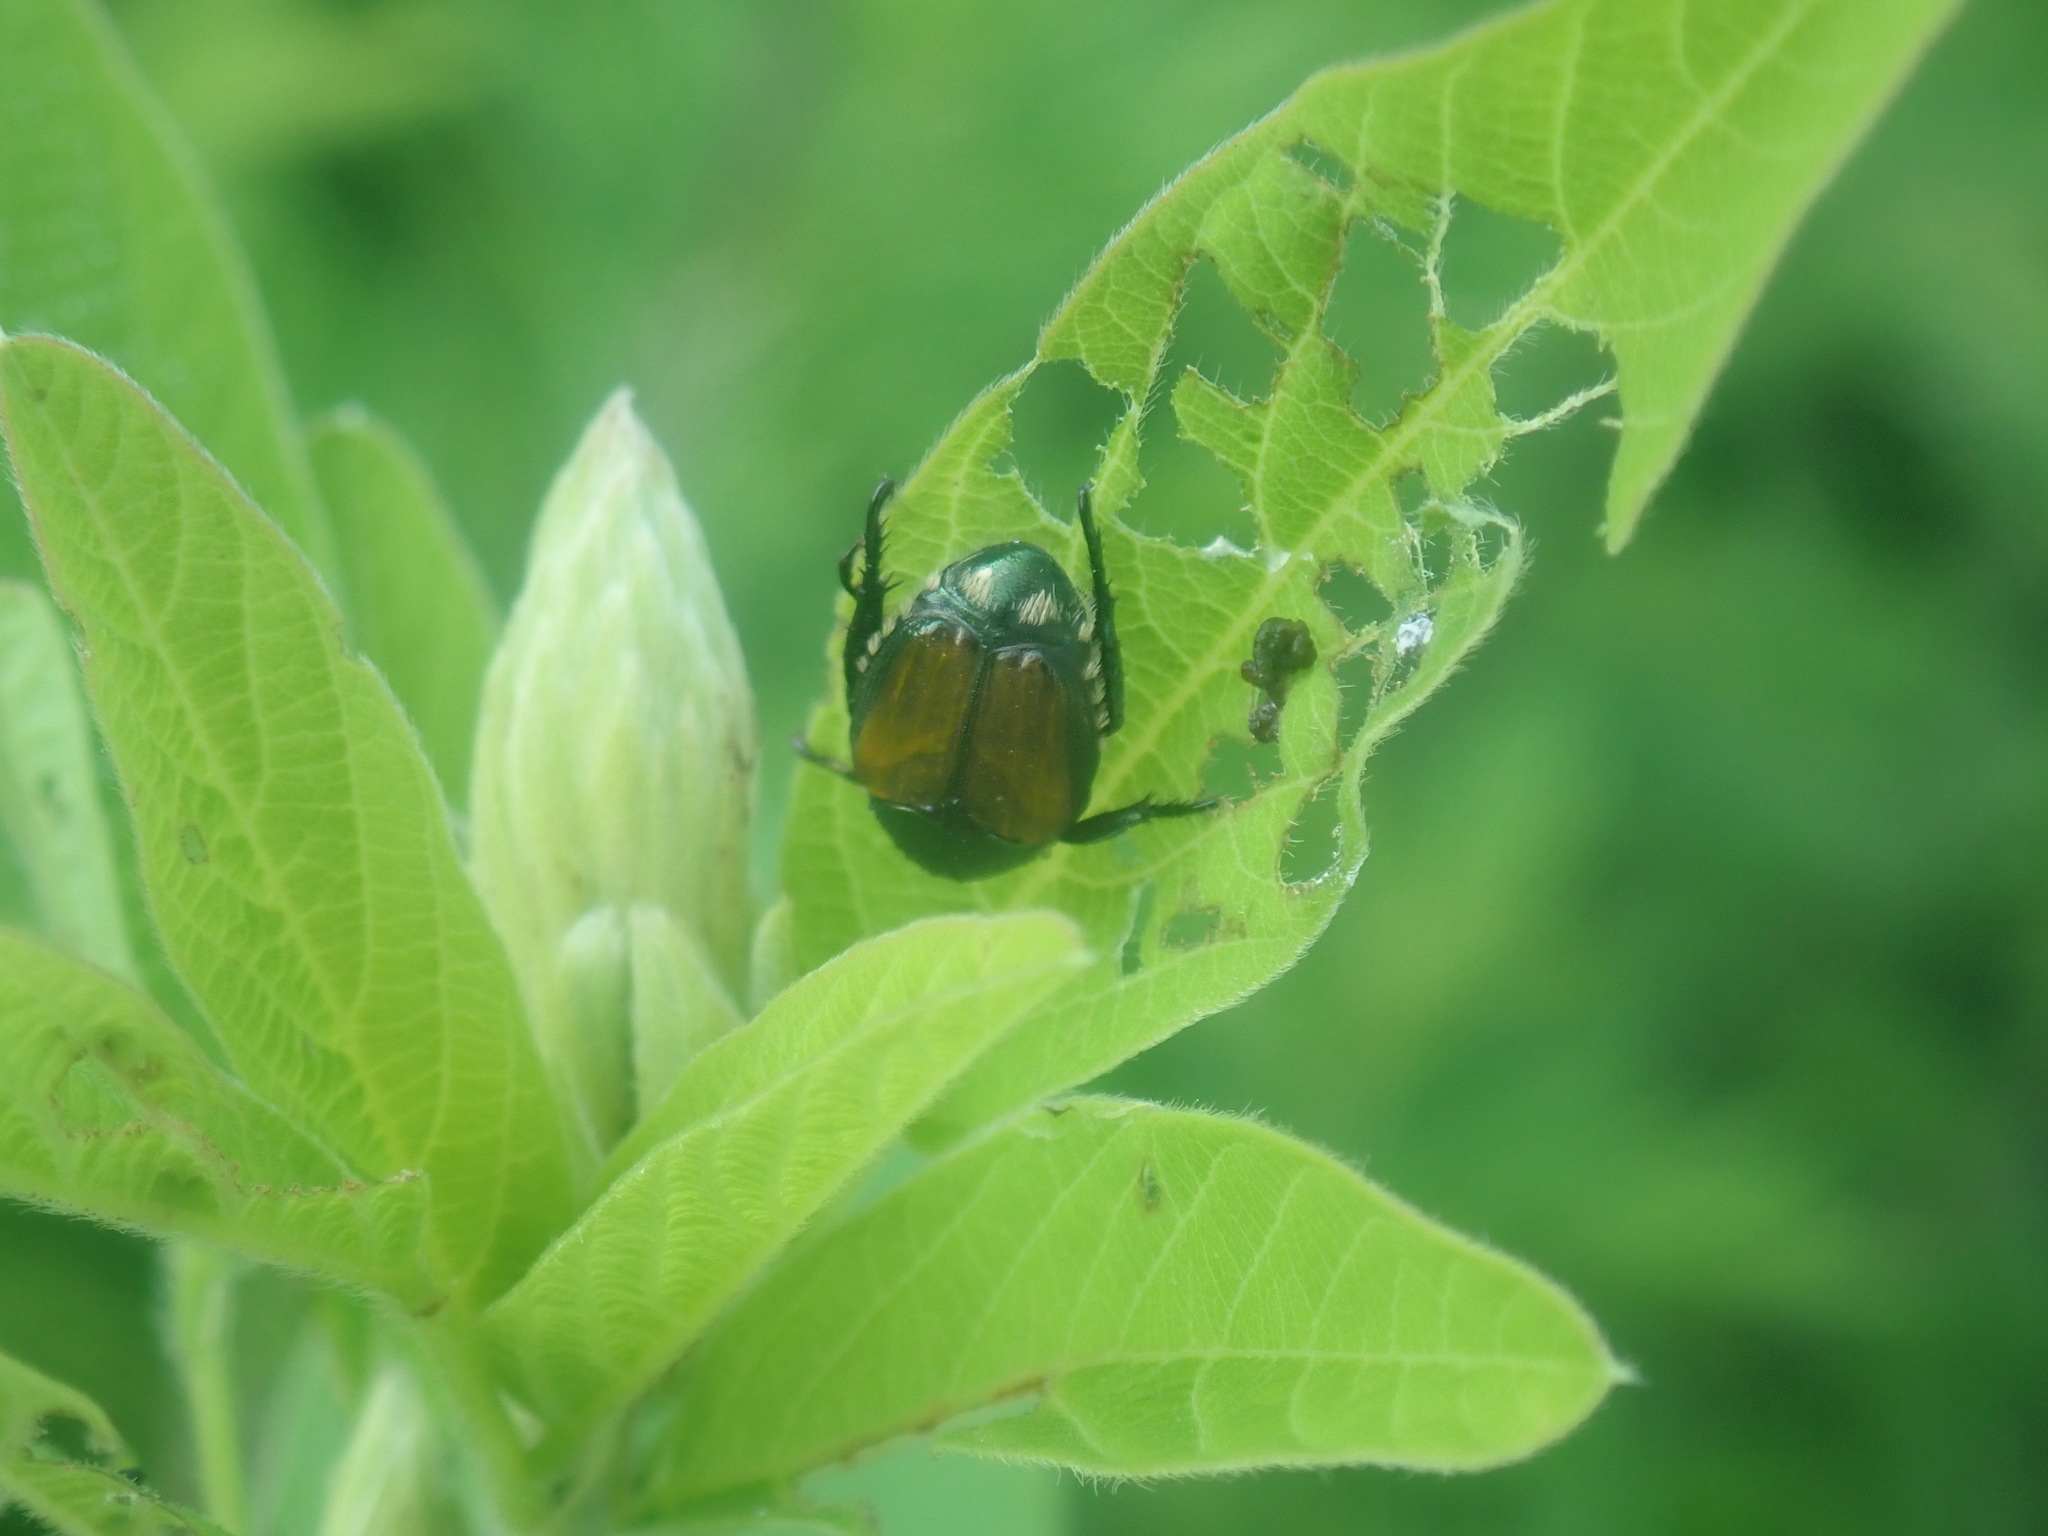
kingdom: Animalia
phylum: Arthropoda
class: Insecta
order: Coleoptera
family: Scarabaeidae
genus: Popillia
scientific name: Popillia japonica
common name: Japanese beetle
